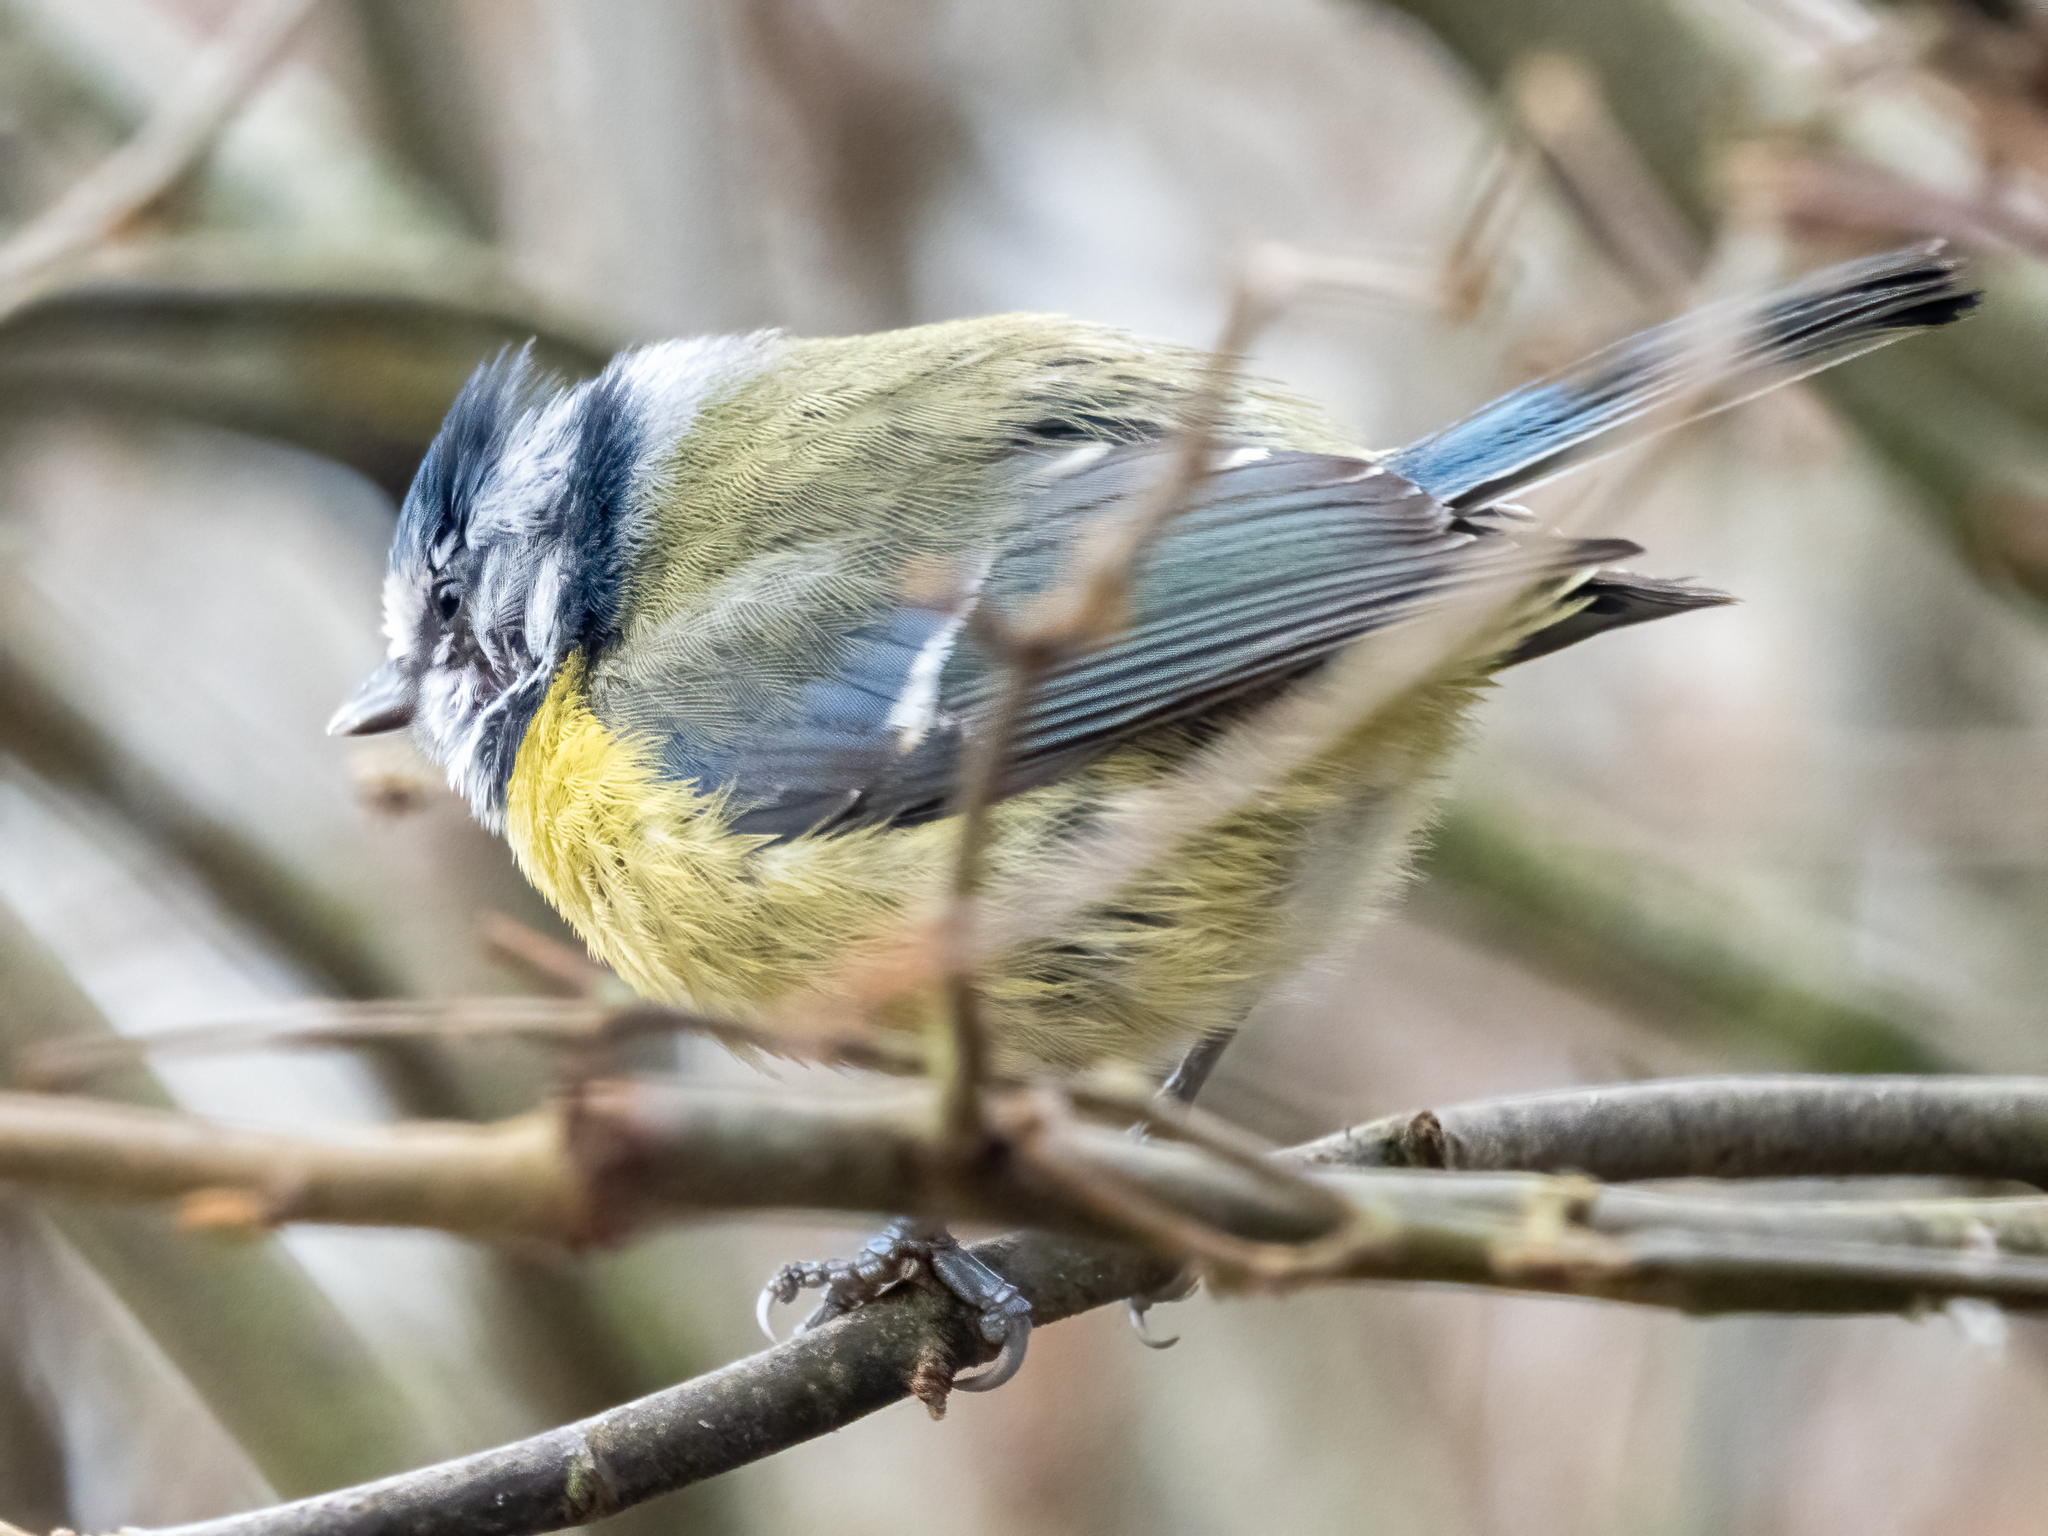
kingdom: Animalia
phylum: Chordata
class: Aves
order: Passeriformes
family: Paridae
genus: Cyanistes
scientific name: Cyanistes caeruleus
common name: Eurasian blue tit
